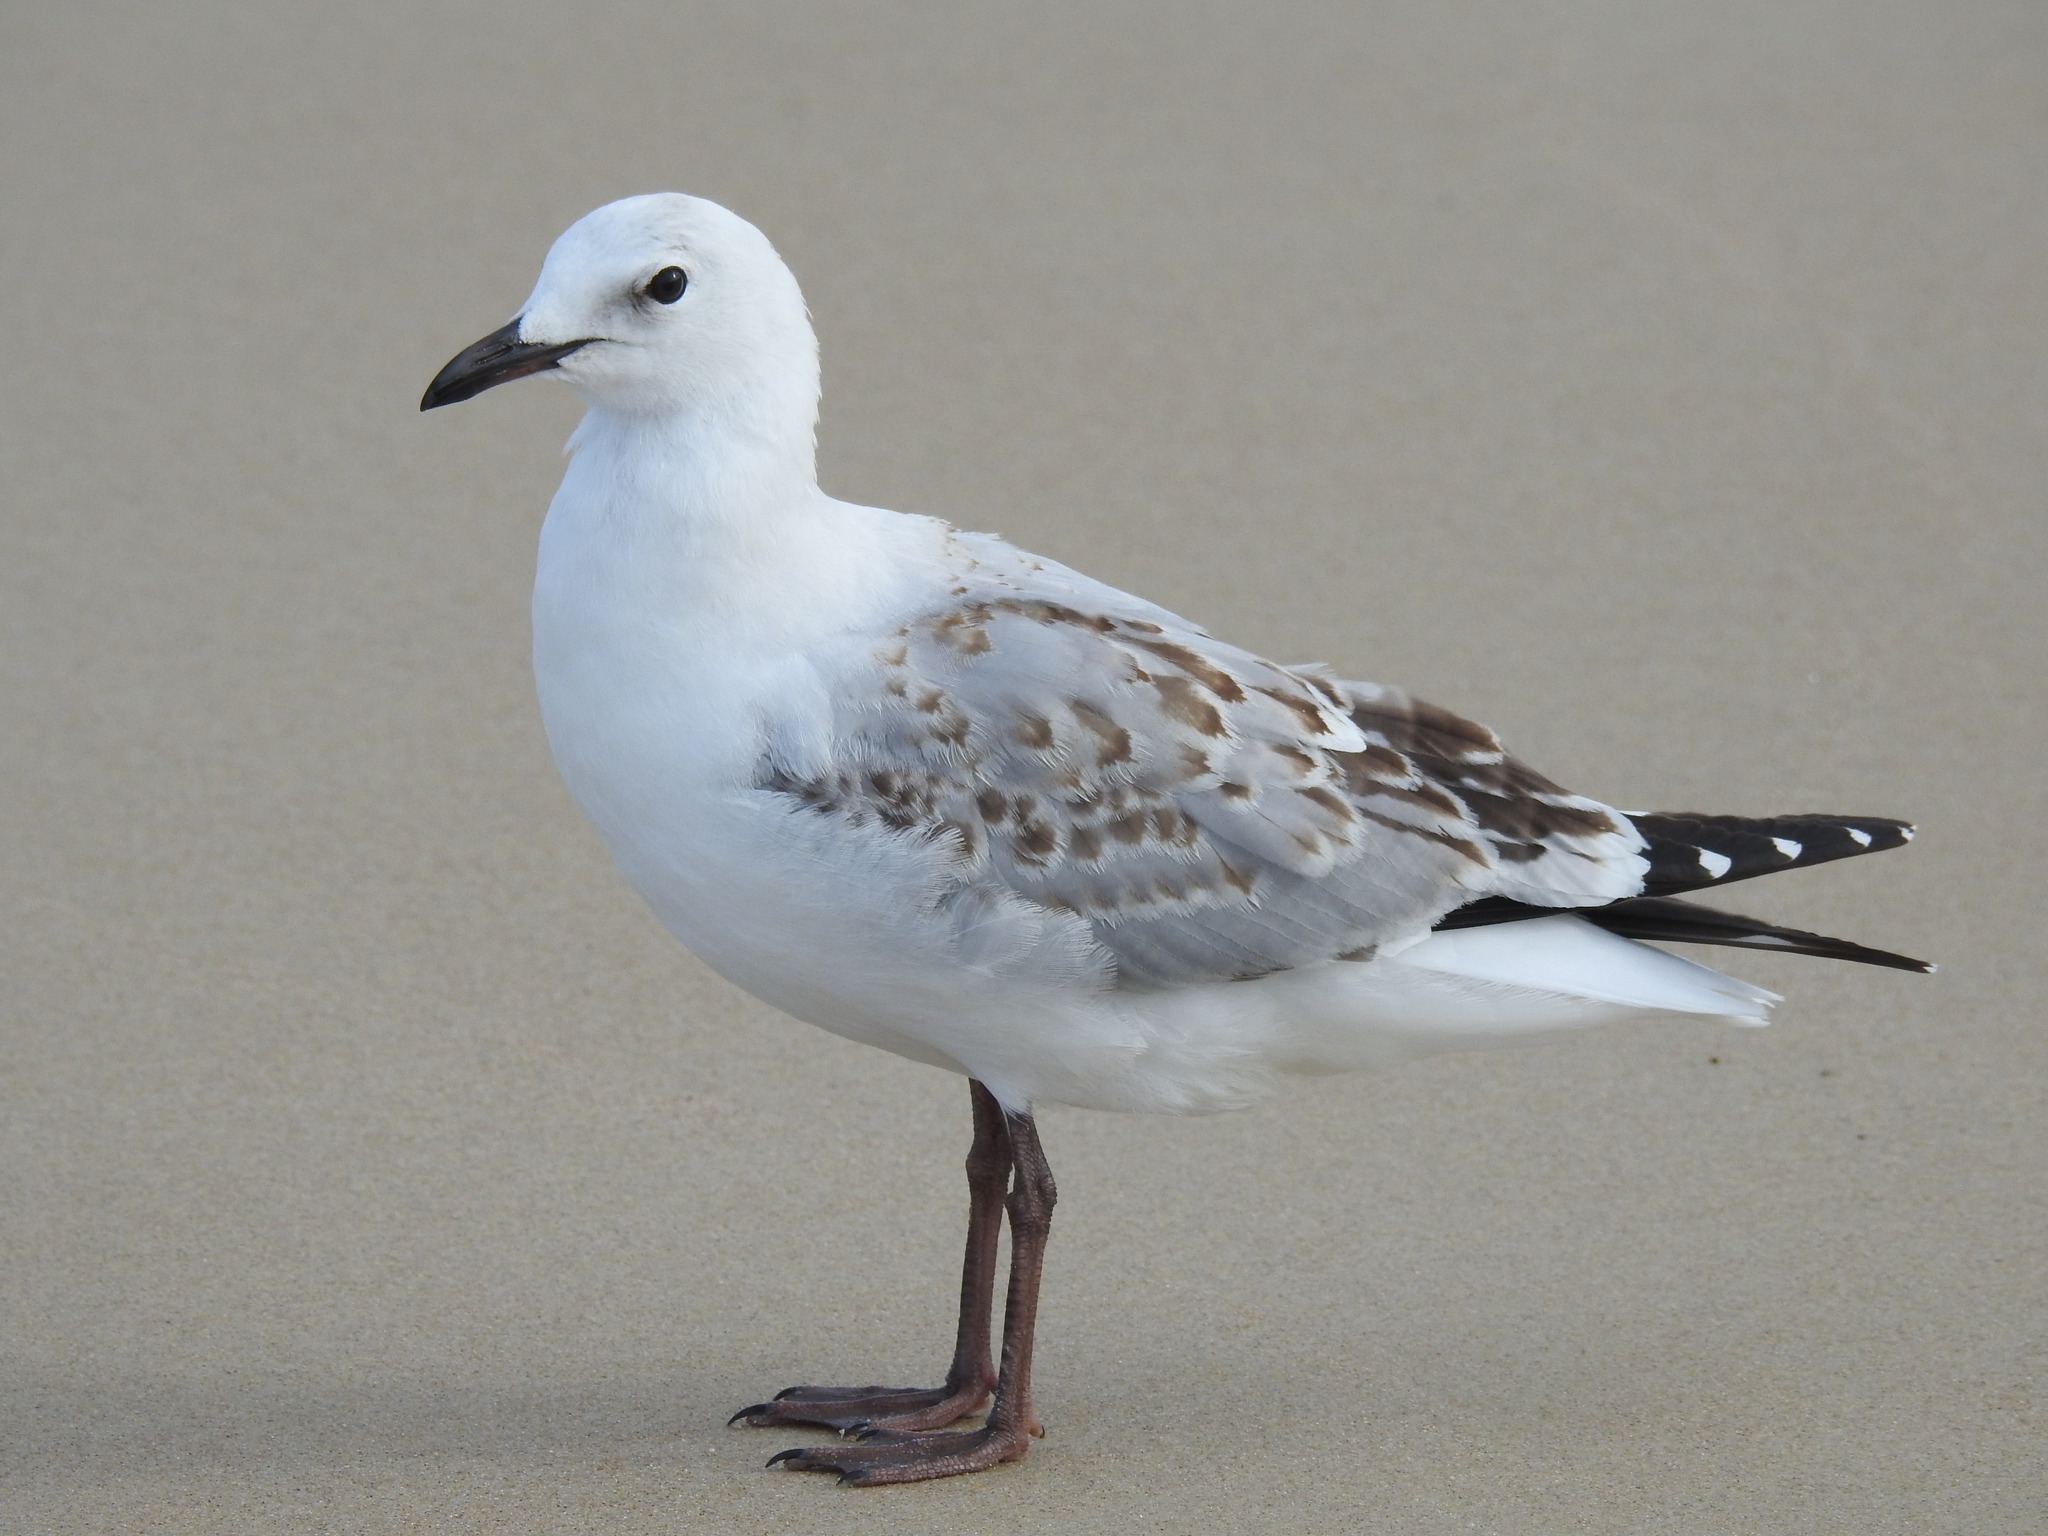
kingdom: Animalia
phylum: Chordata
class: Aves
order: Charadriiformes
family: Laridae
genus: Chroicocephalus
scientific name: Chroicocephalus novaehollandiae
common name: Silver gull
